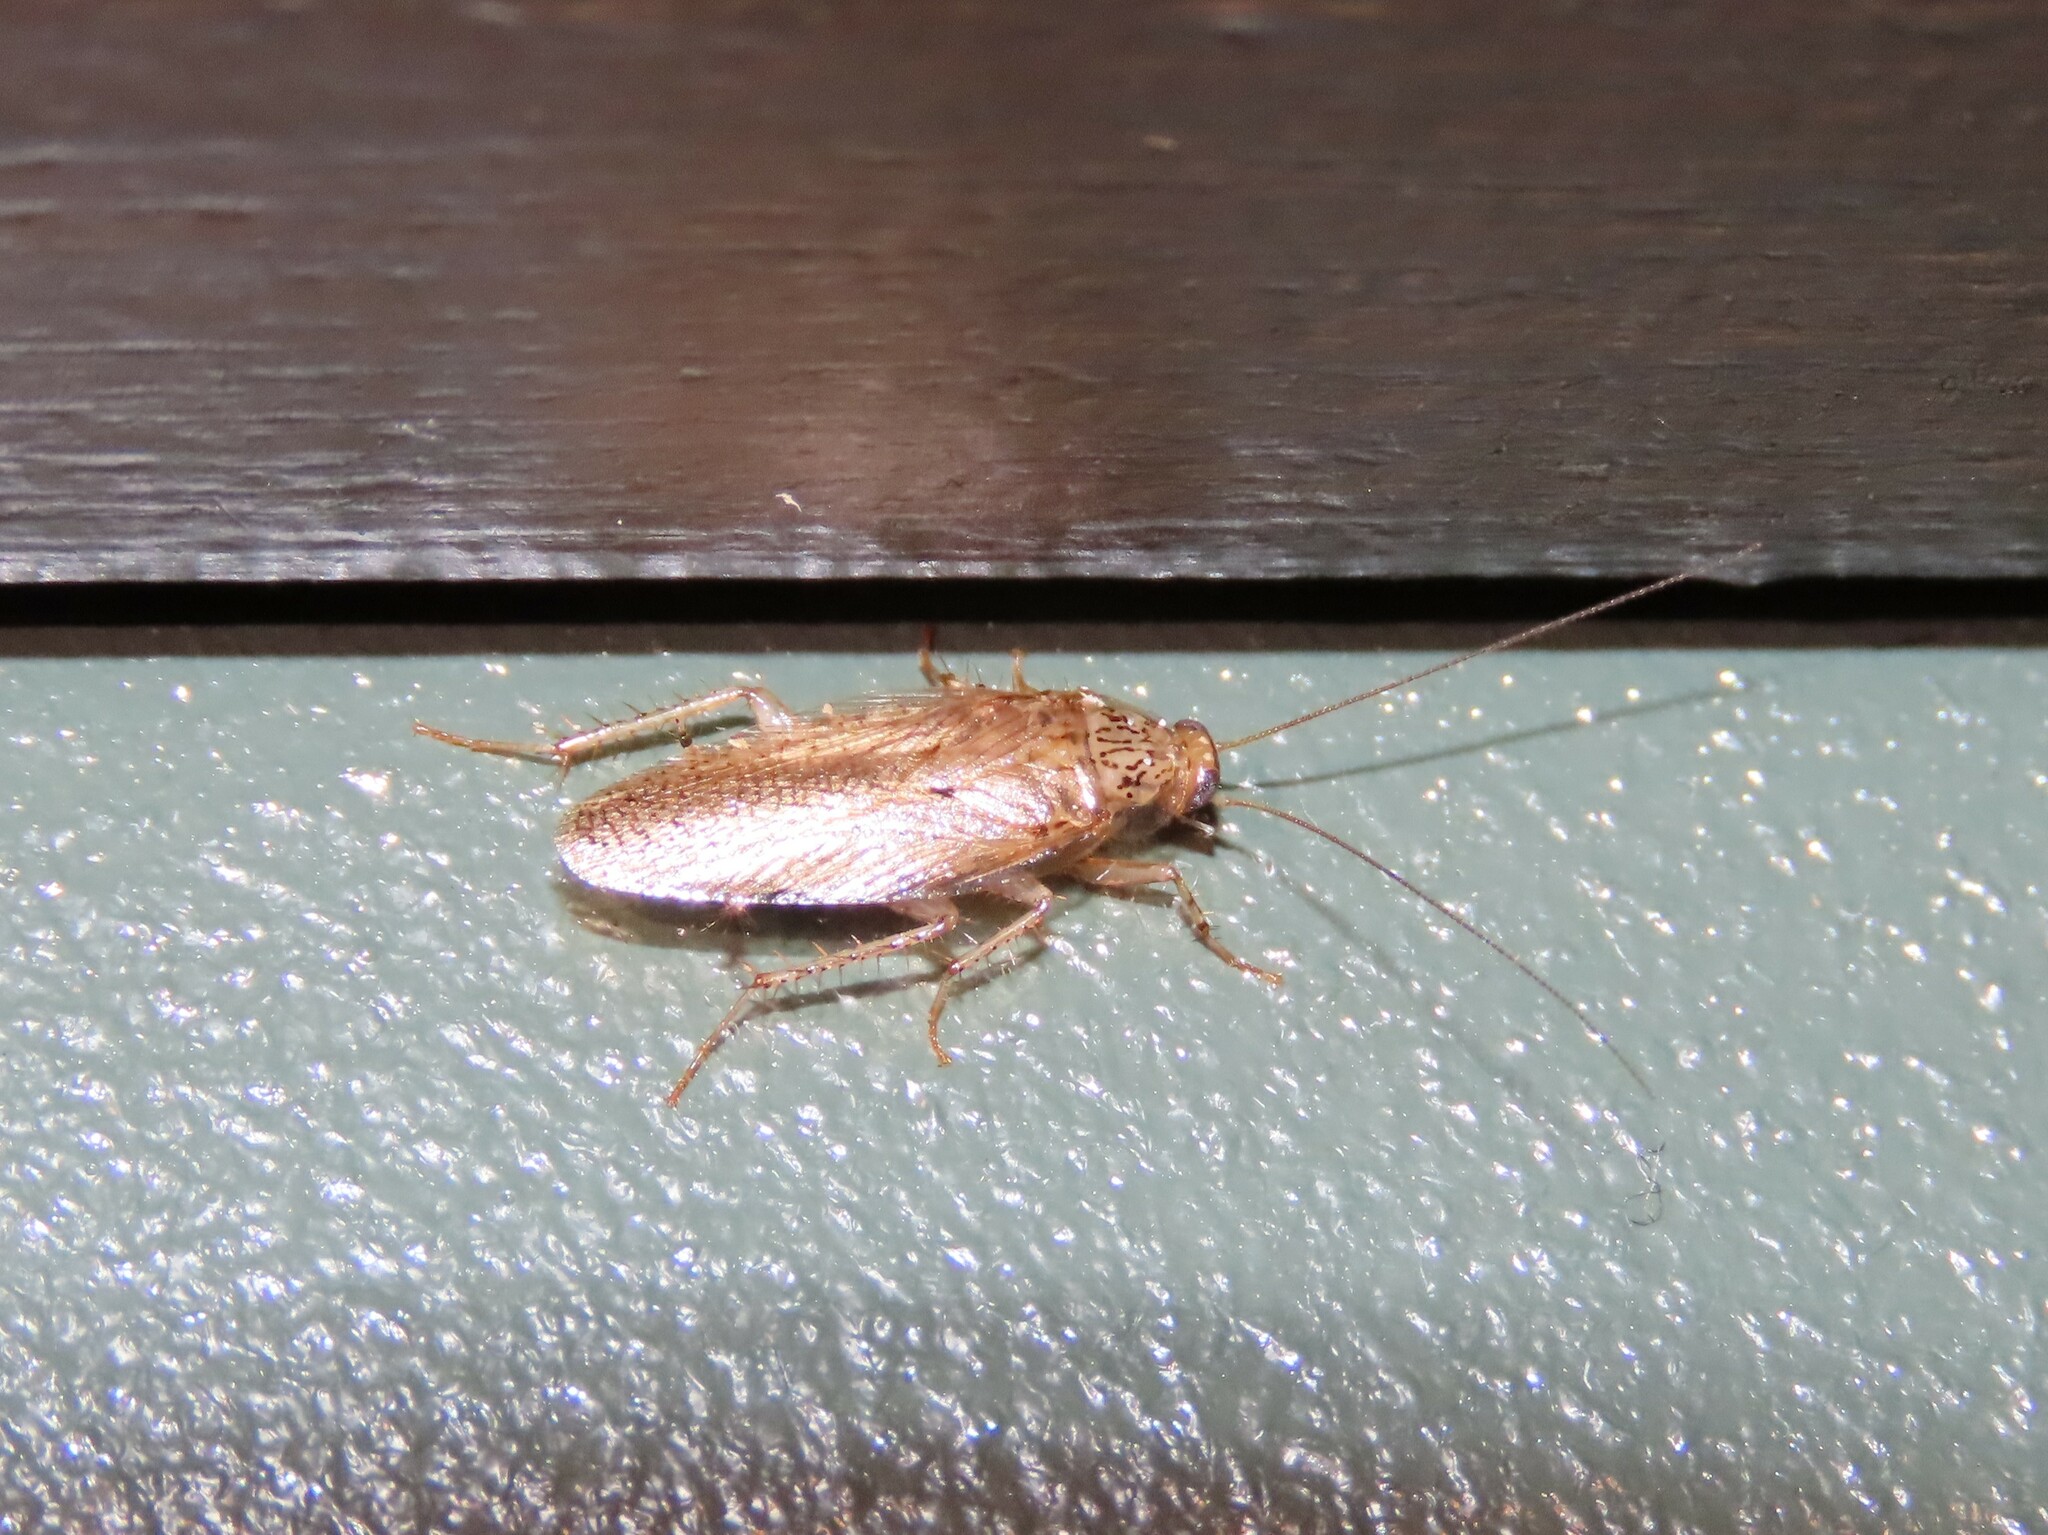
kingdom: Animalia
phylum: Arthropoda
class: Insecta
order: Blattodea
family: Ectobiidae
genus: Neoblattella
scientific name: Neoblattella detersa
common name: Wood cockroach
